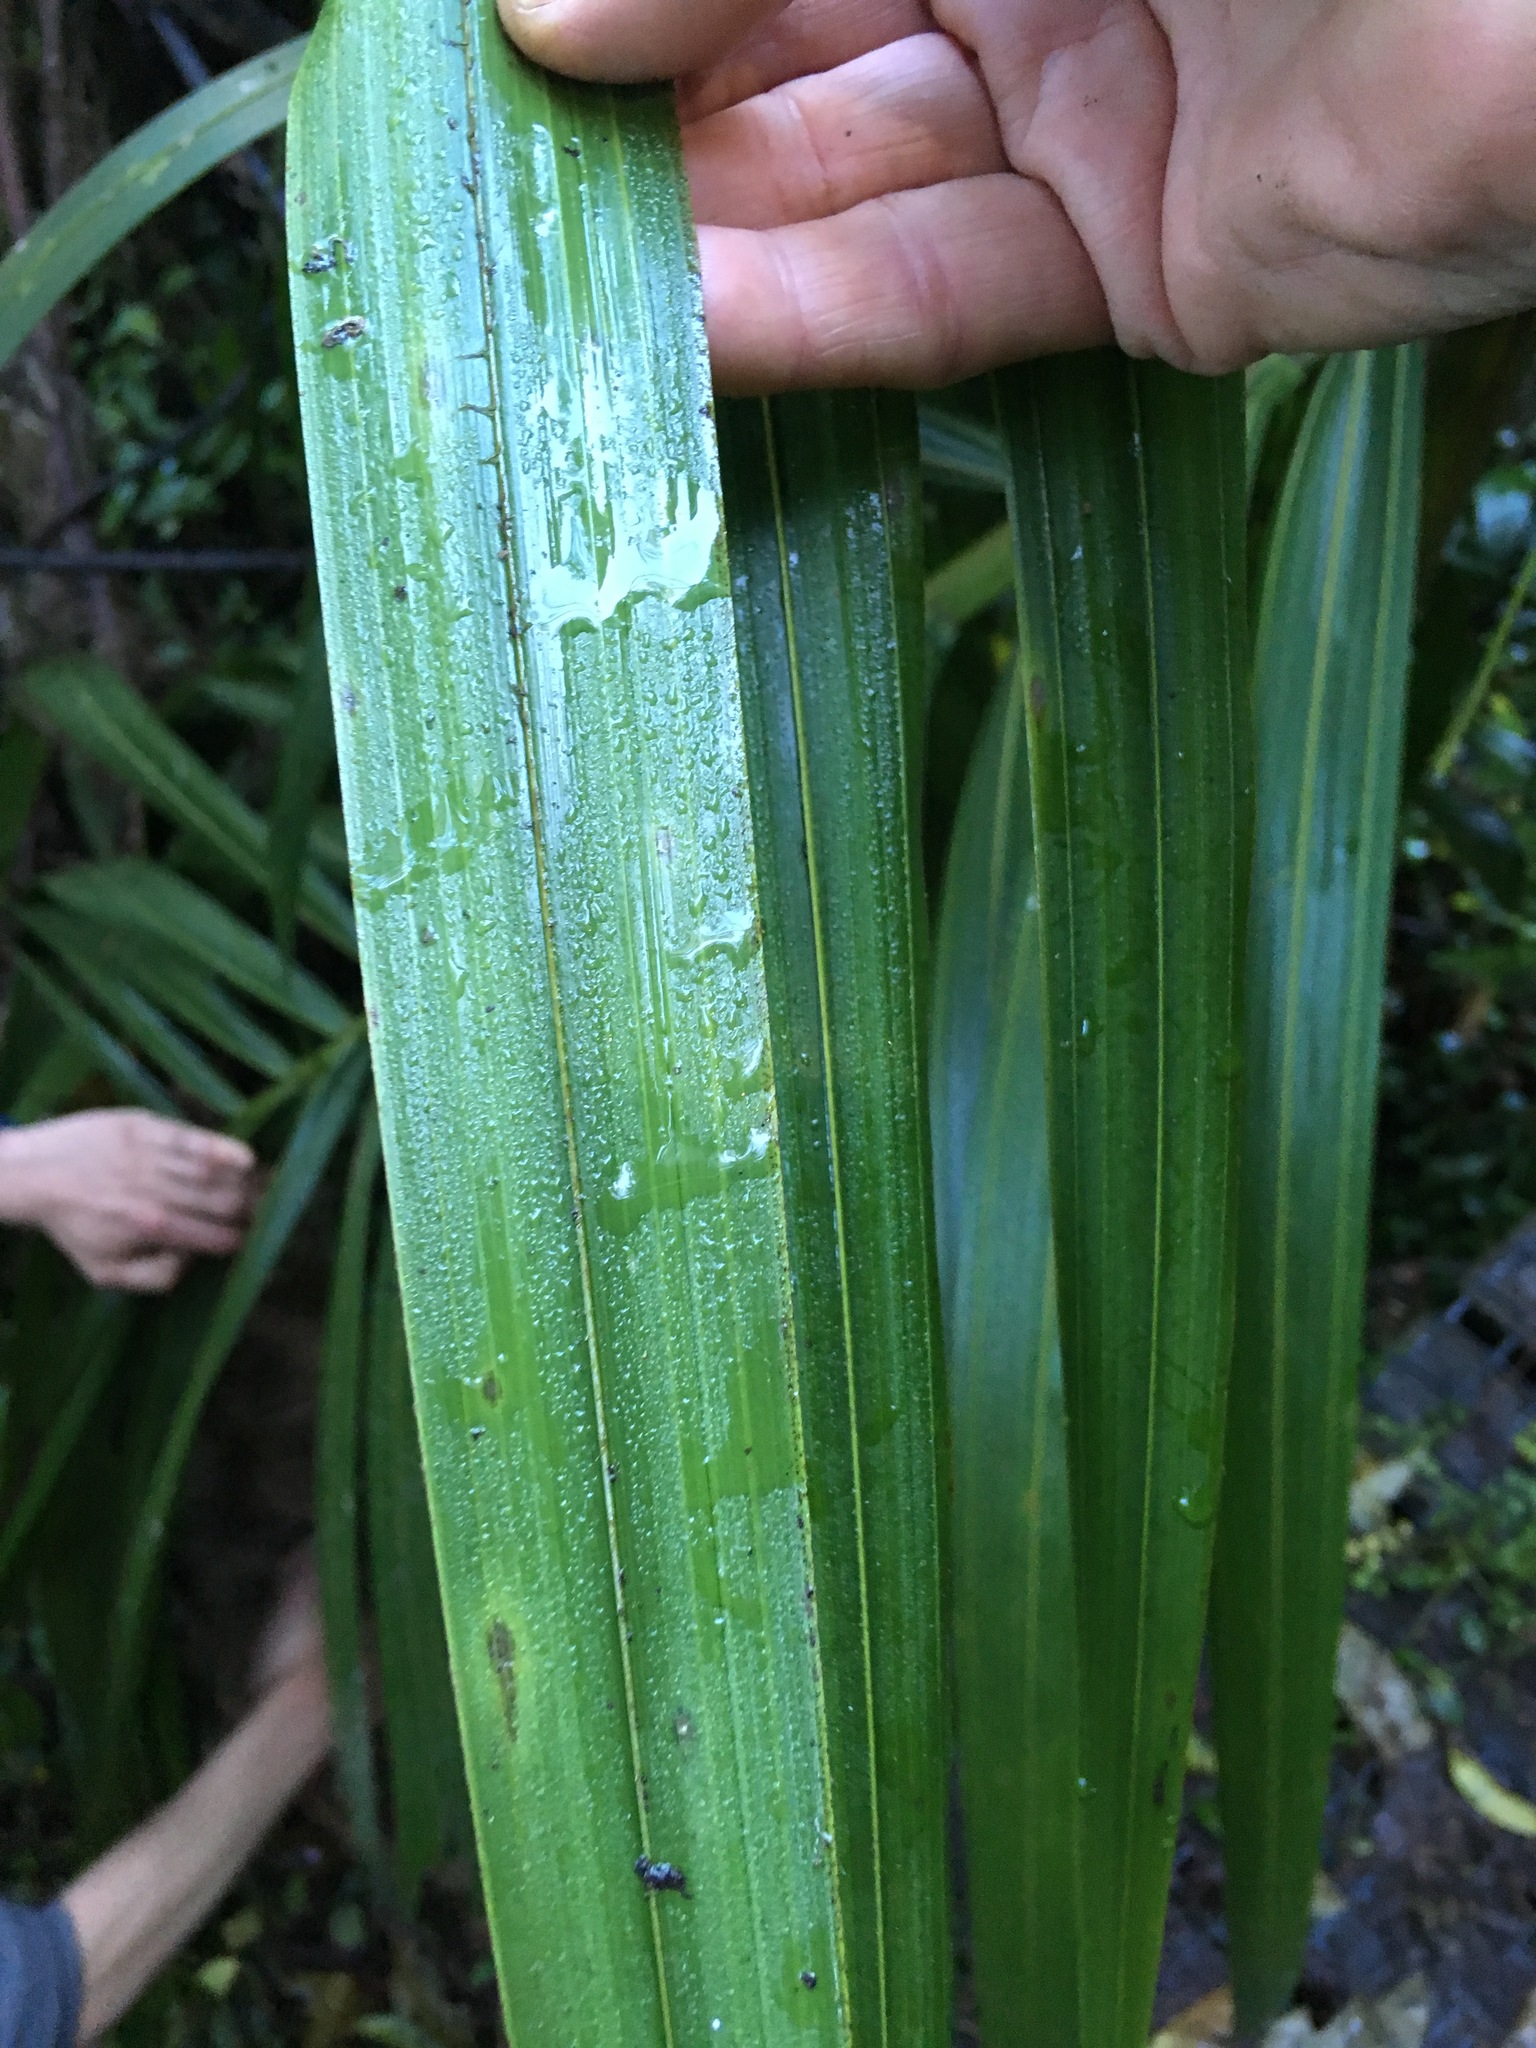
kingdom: Plantae
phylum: Tracheophyta
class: Liliopsida
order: Arecales
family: Arecaceae
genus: Rhopalostylis
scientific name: Rhopalostylis sapida
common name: Feather-duster palm
